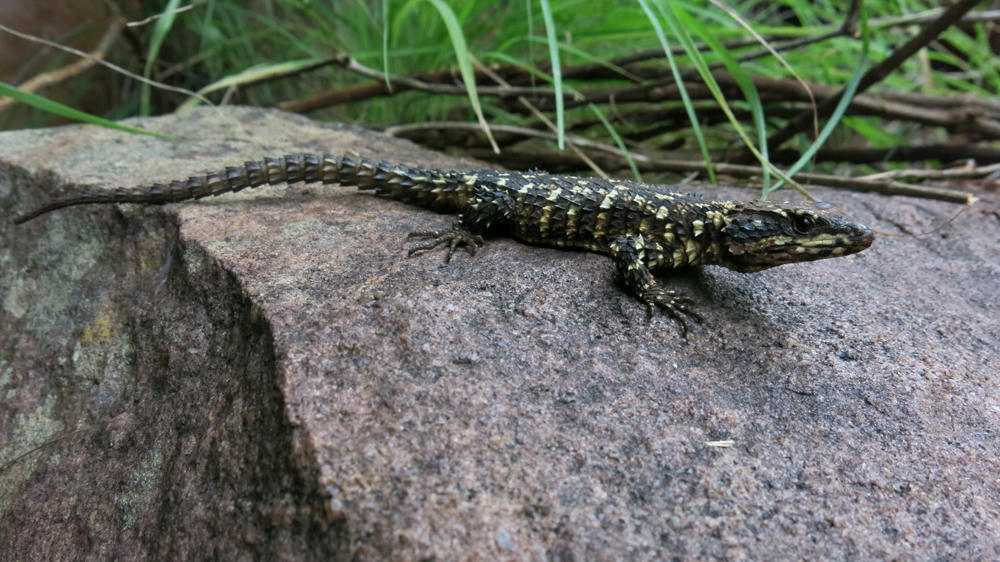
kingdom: Animalia
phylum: Chordata
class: Squamata
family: Cordylidae
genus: Smaug
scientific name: Smaug depressus
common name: Flat dragon lizard
